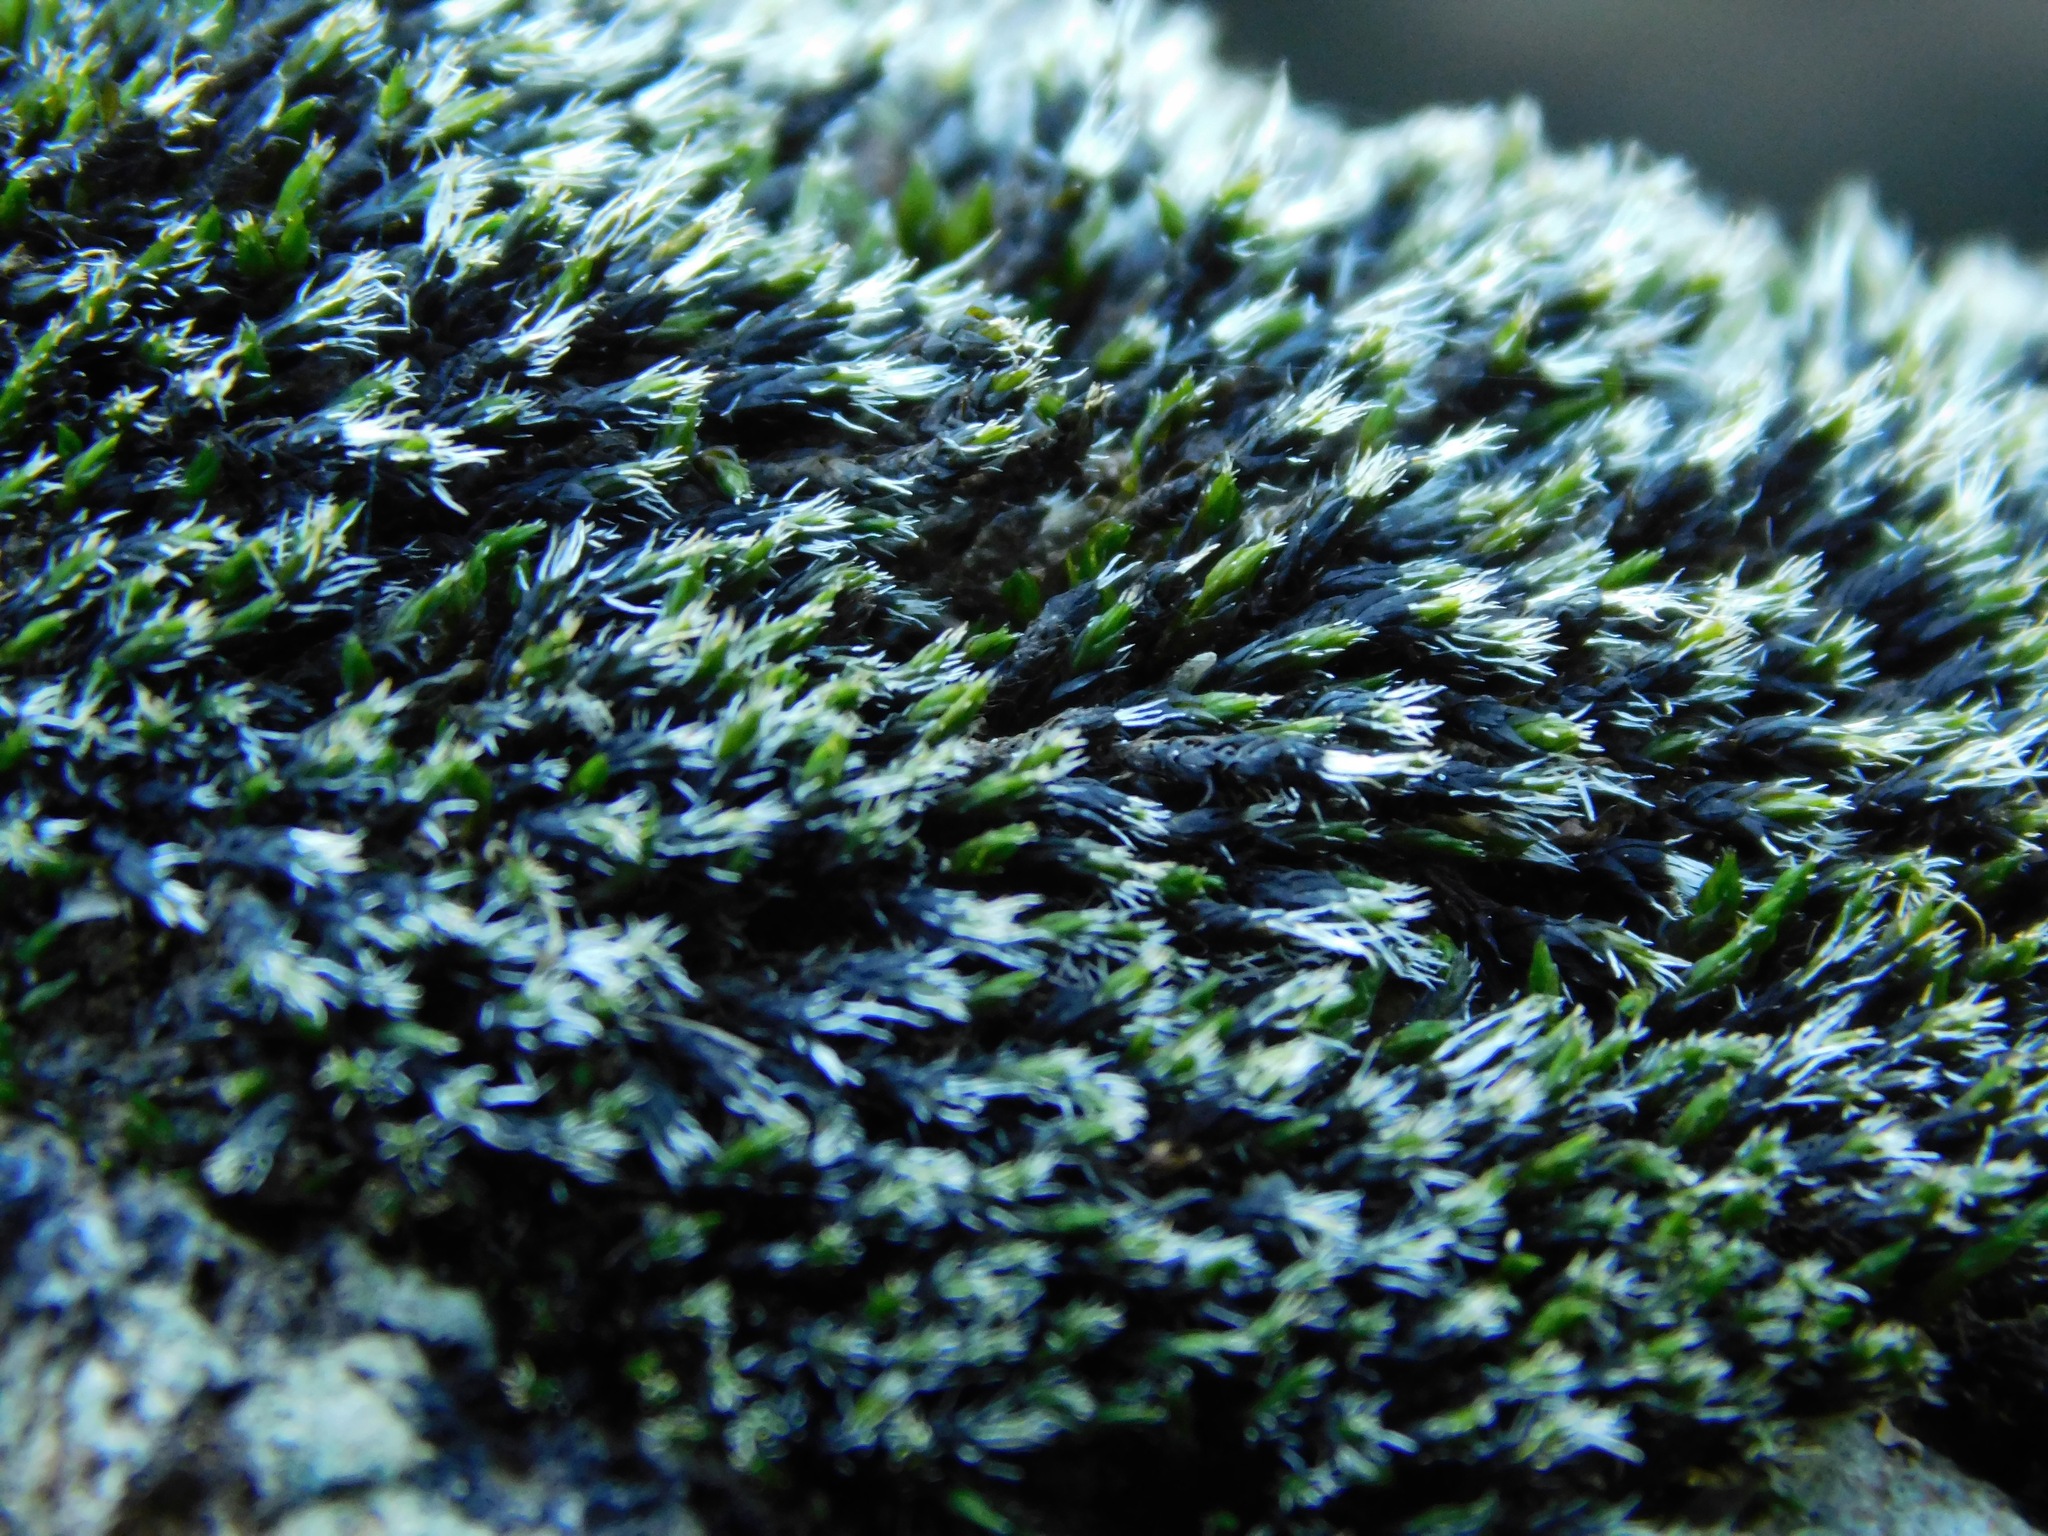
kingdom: Plantae
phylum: Bryophyta
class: Bryopsida
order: Grimmiales
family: Grimmiaceae
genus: Grimmia
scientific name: Grimmia laevigata
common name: Hoary grimmia
